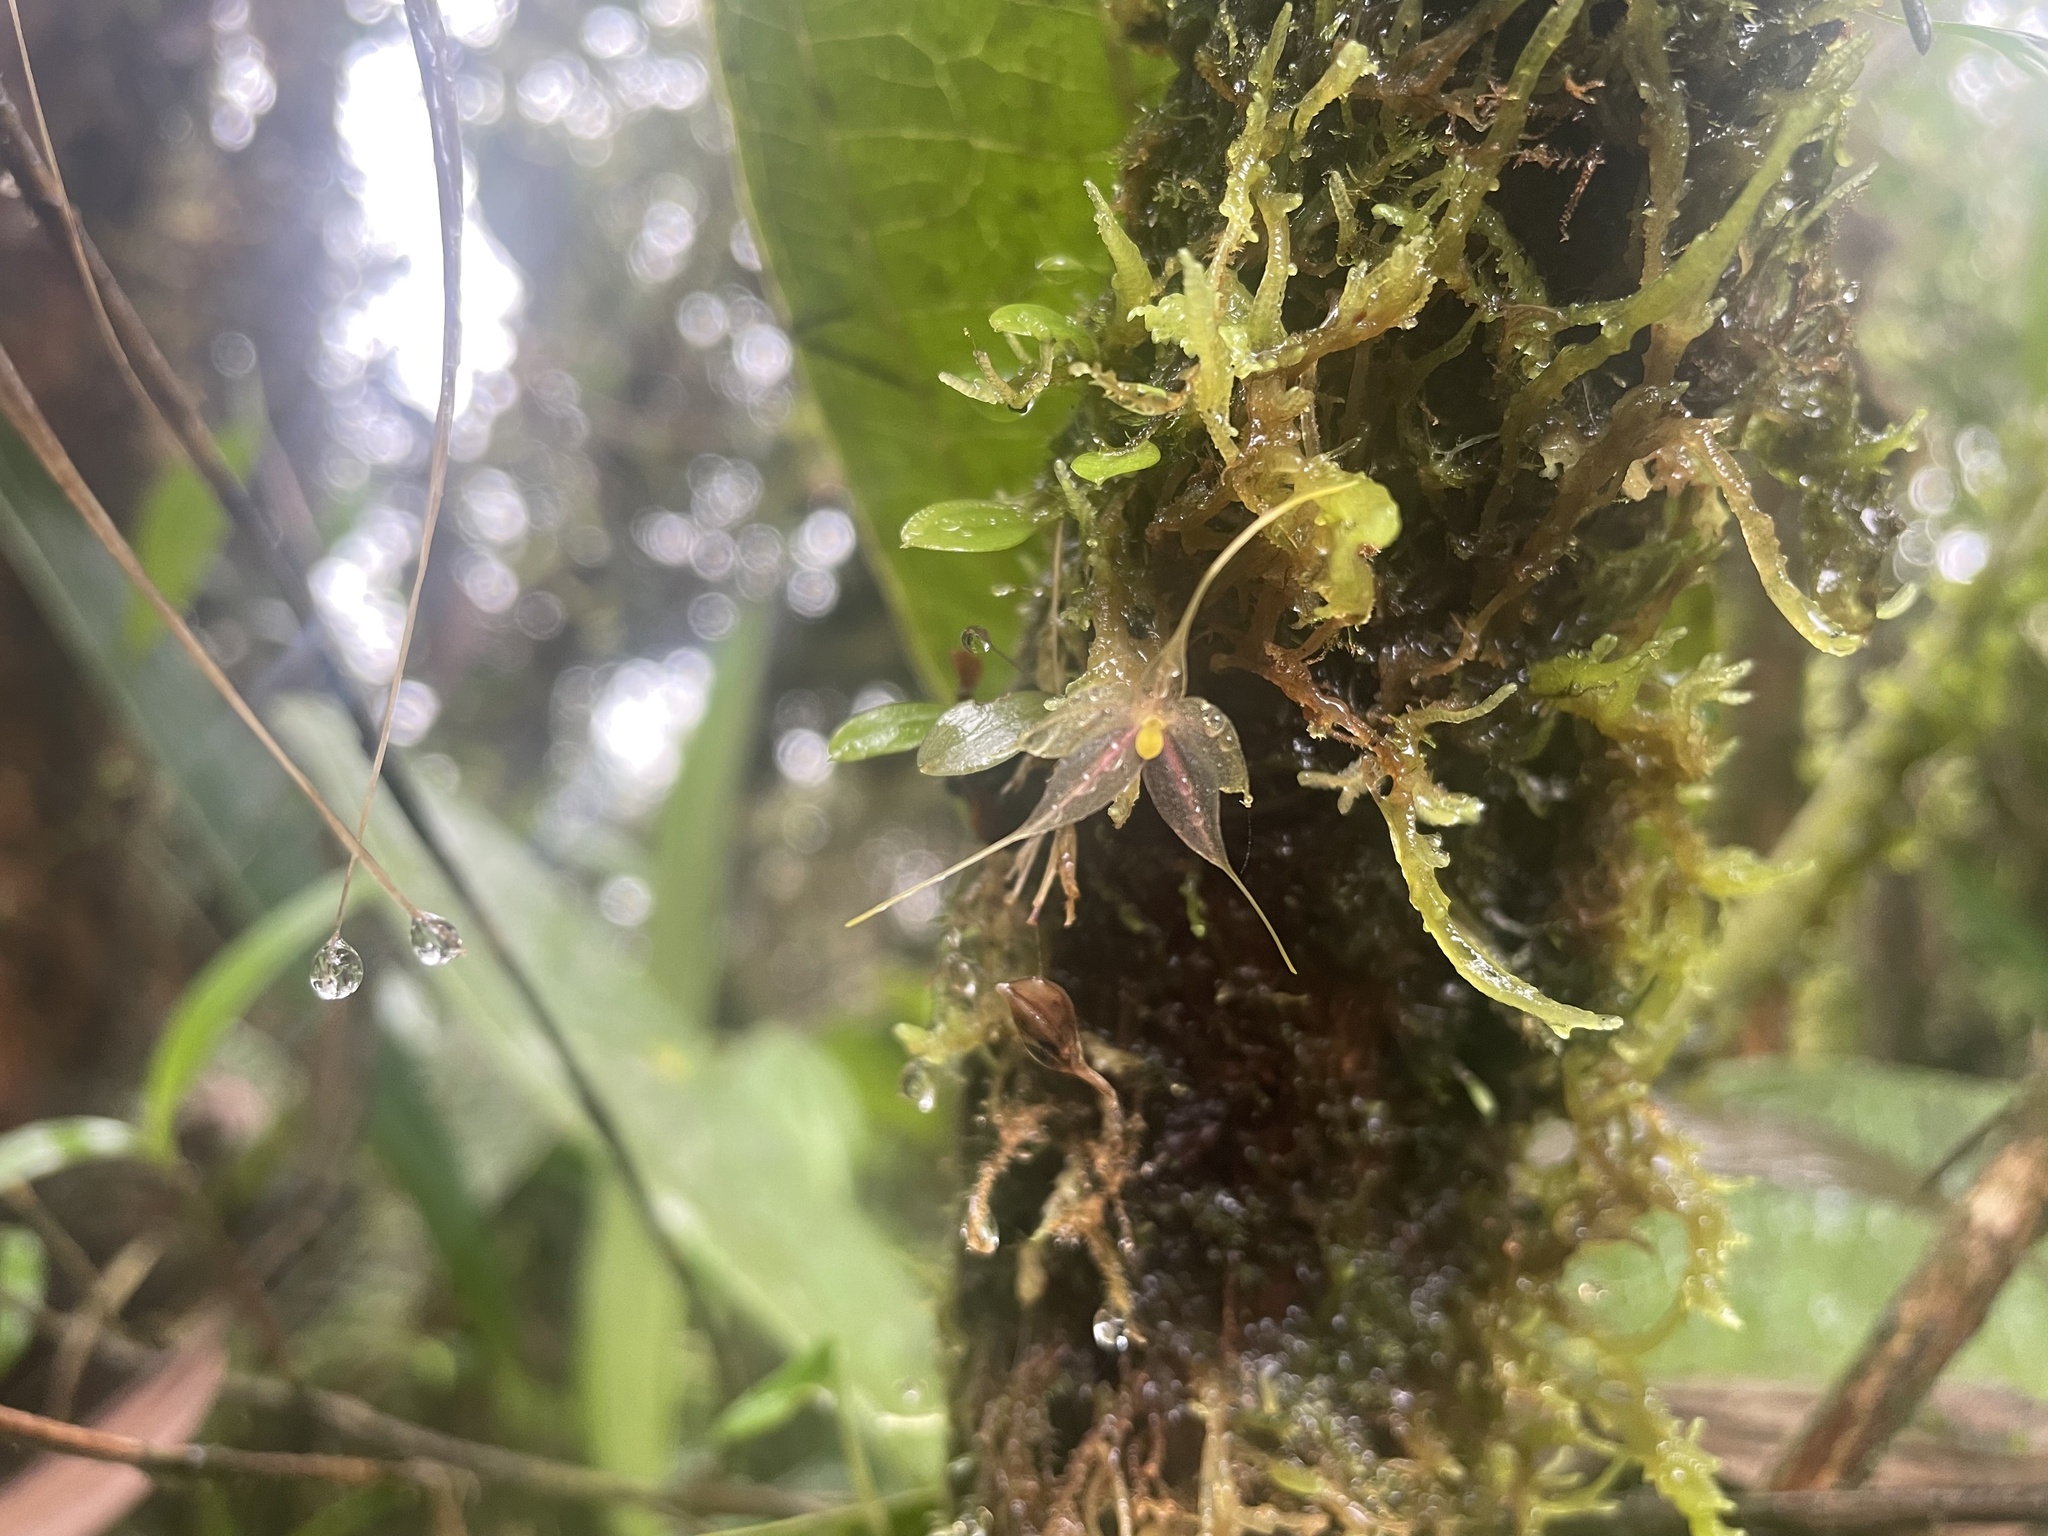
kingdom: Plantae
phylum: Tracheophyta
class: Liliopsida
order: Asparagales
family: Orchidaceae
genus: Platystele
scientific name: Platystele posadarum
